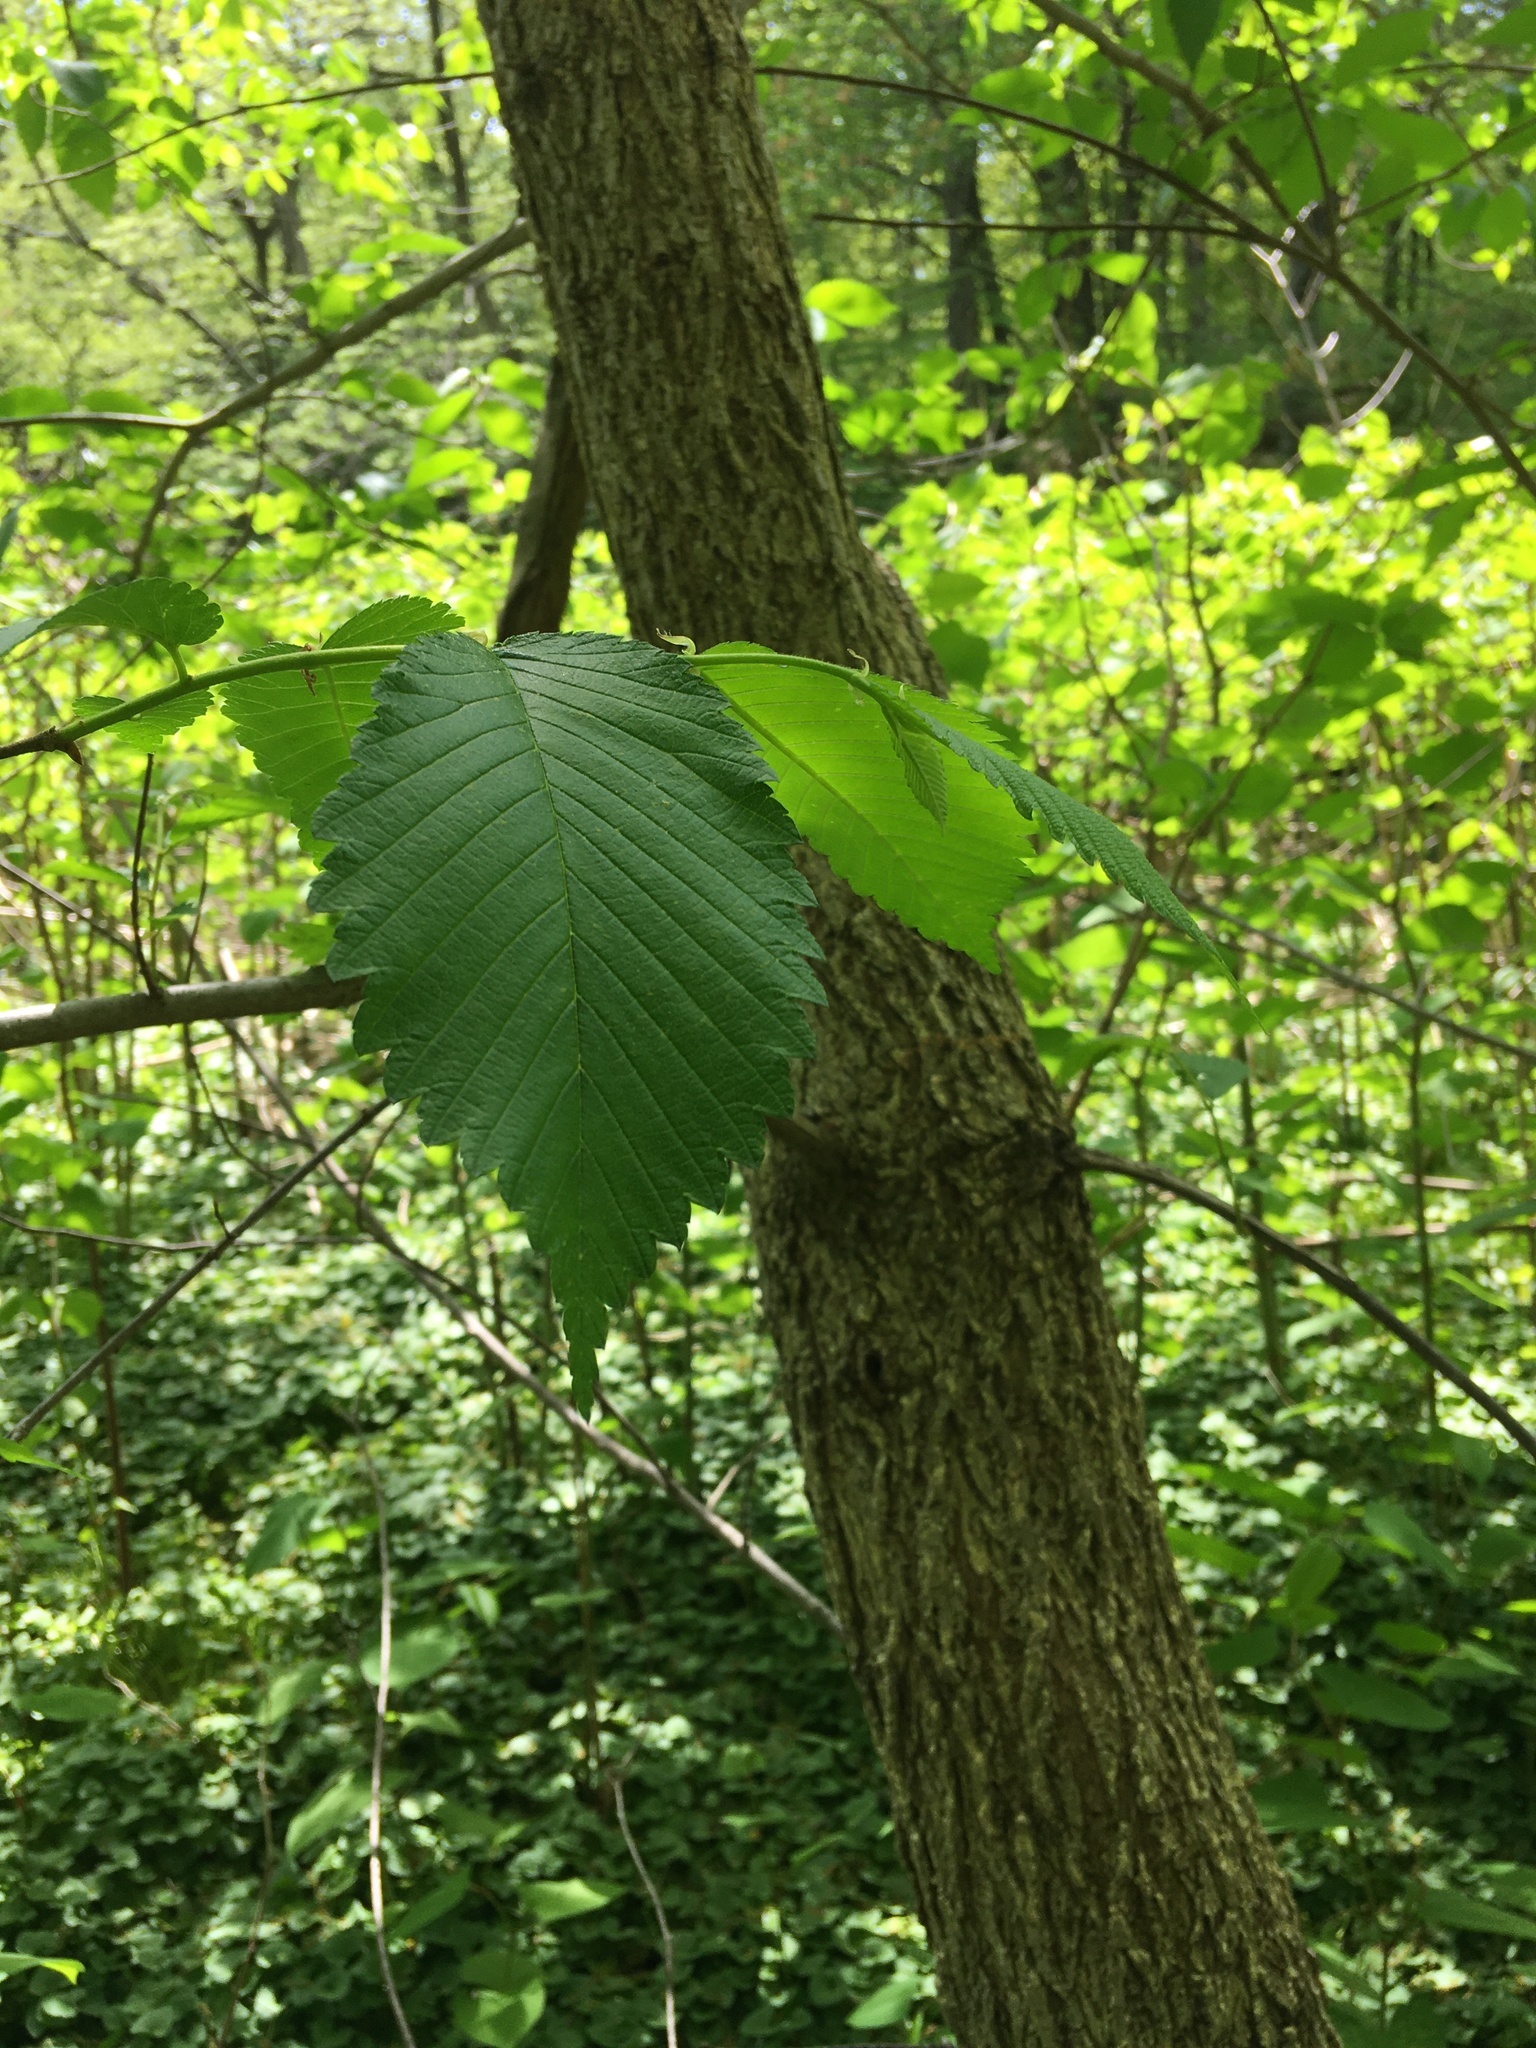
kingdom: Plantae
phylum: Tracheophyta
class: Magnoliopsida
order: Rosales
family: Ulmaceae
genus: Ulmus
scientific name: Ulmus americana
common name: American elm
